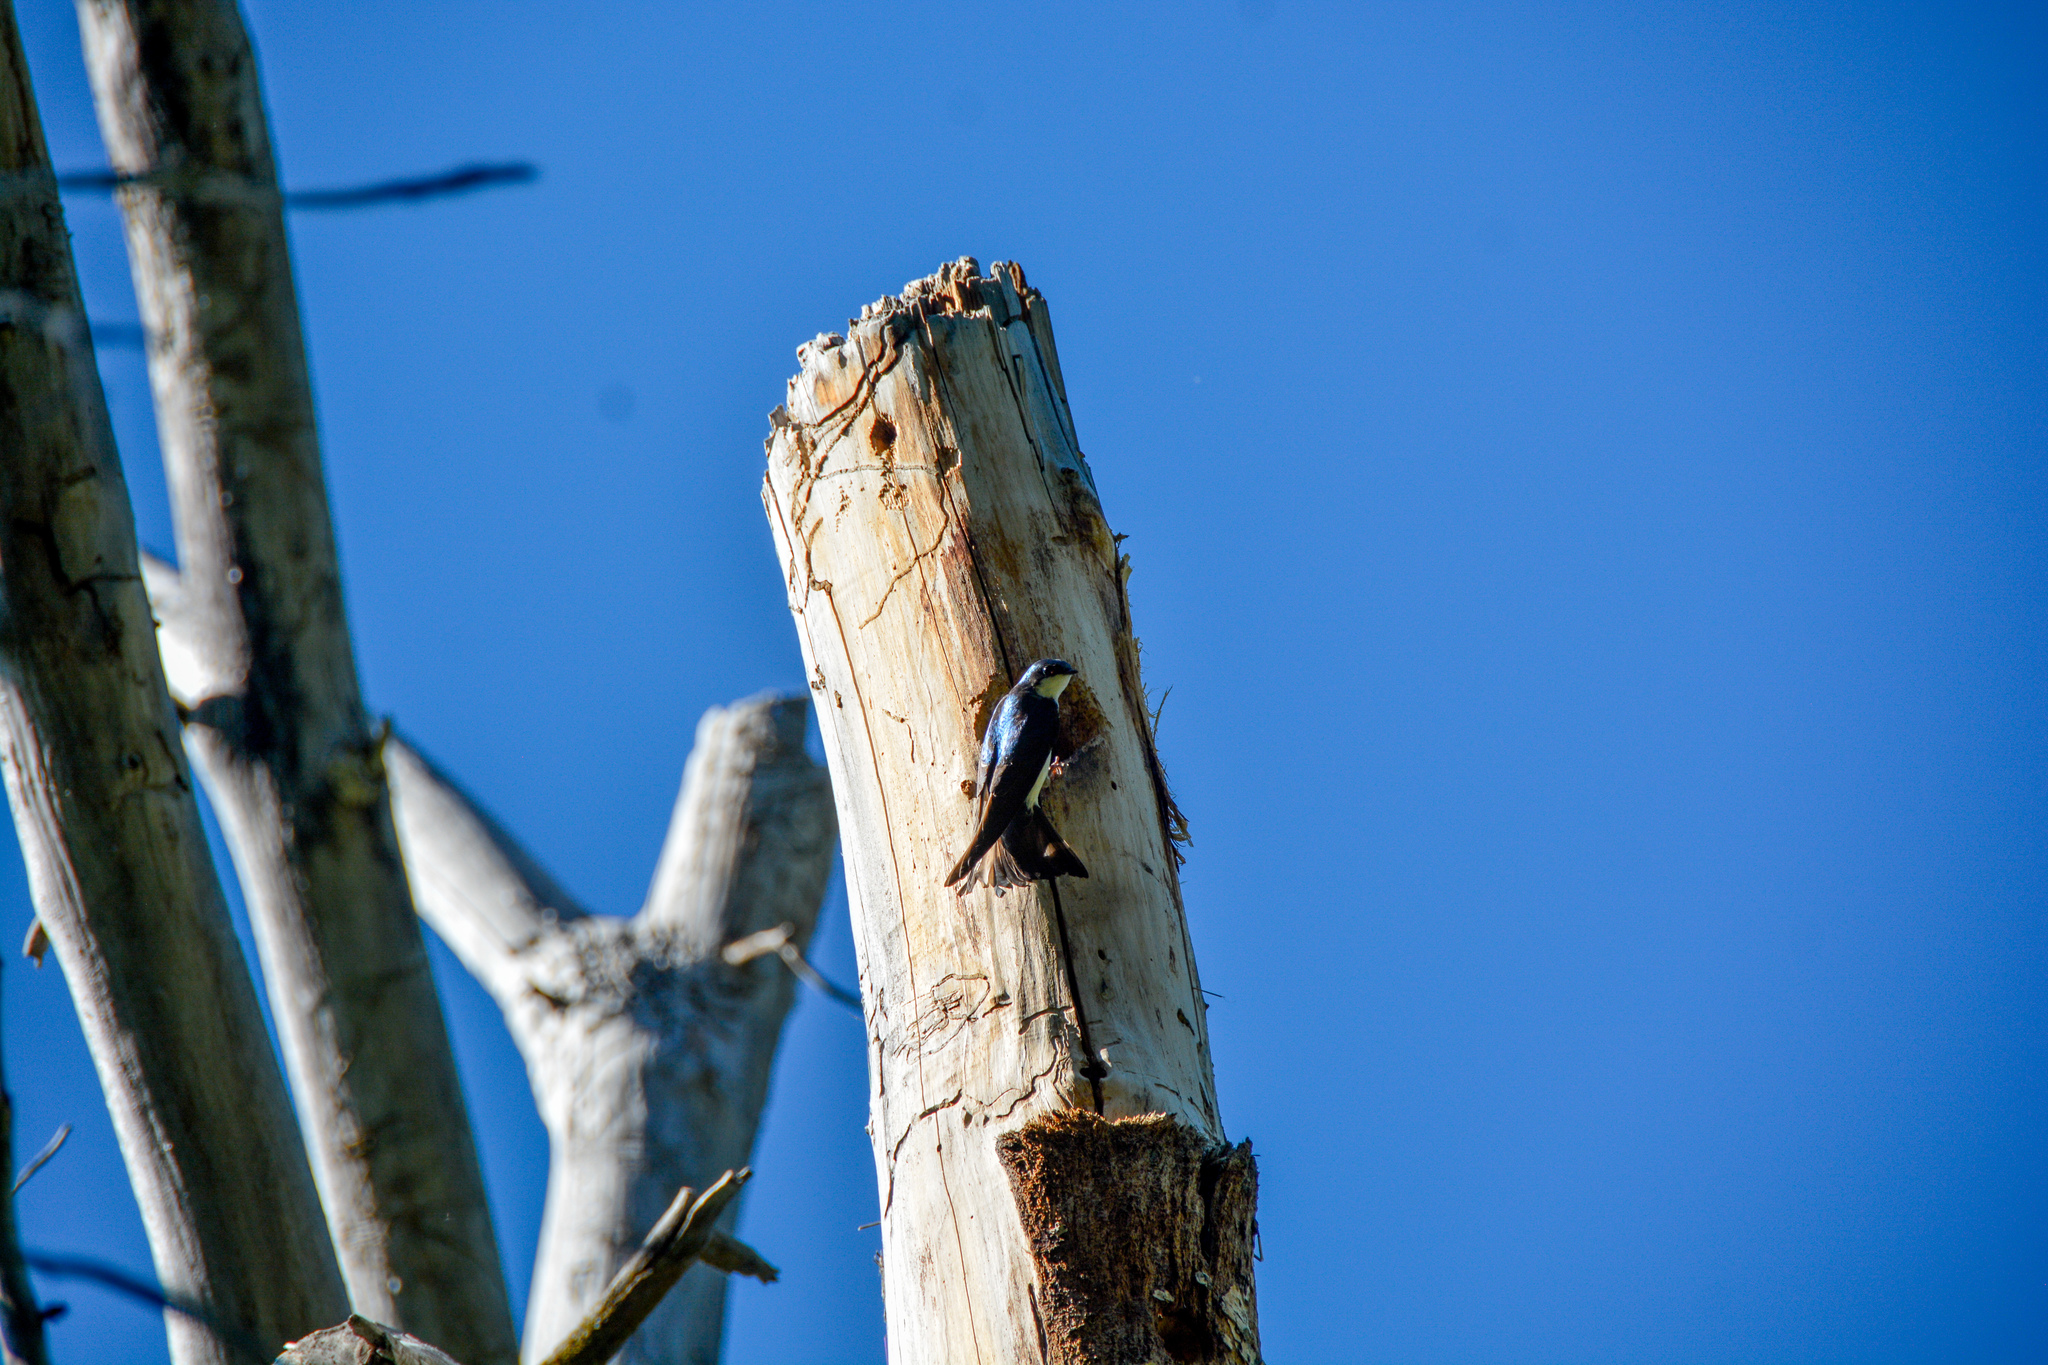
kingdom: Animalia
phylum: Chordata
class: Aves
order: Passeriformes
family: Hirundinidae
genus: Tachycineta
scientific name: Tachycineta bicolor
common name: Tree swallow
